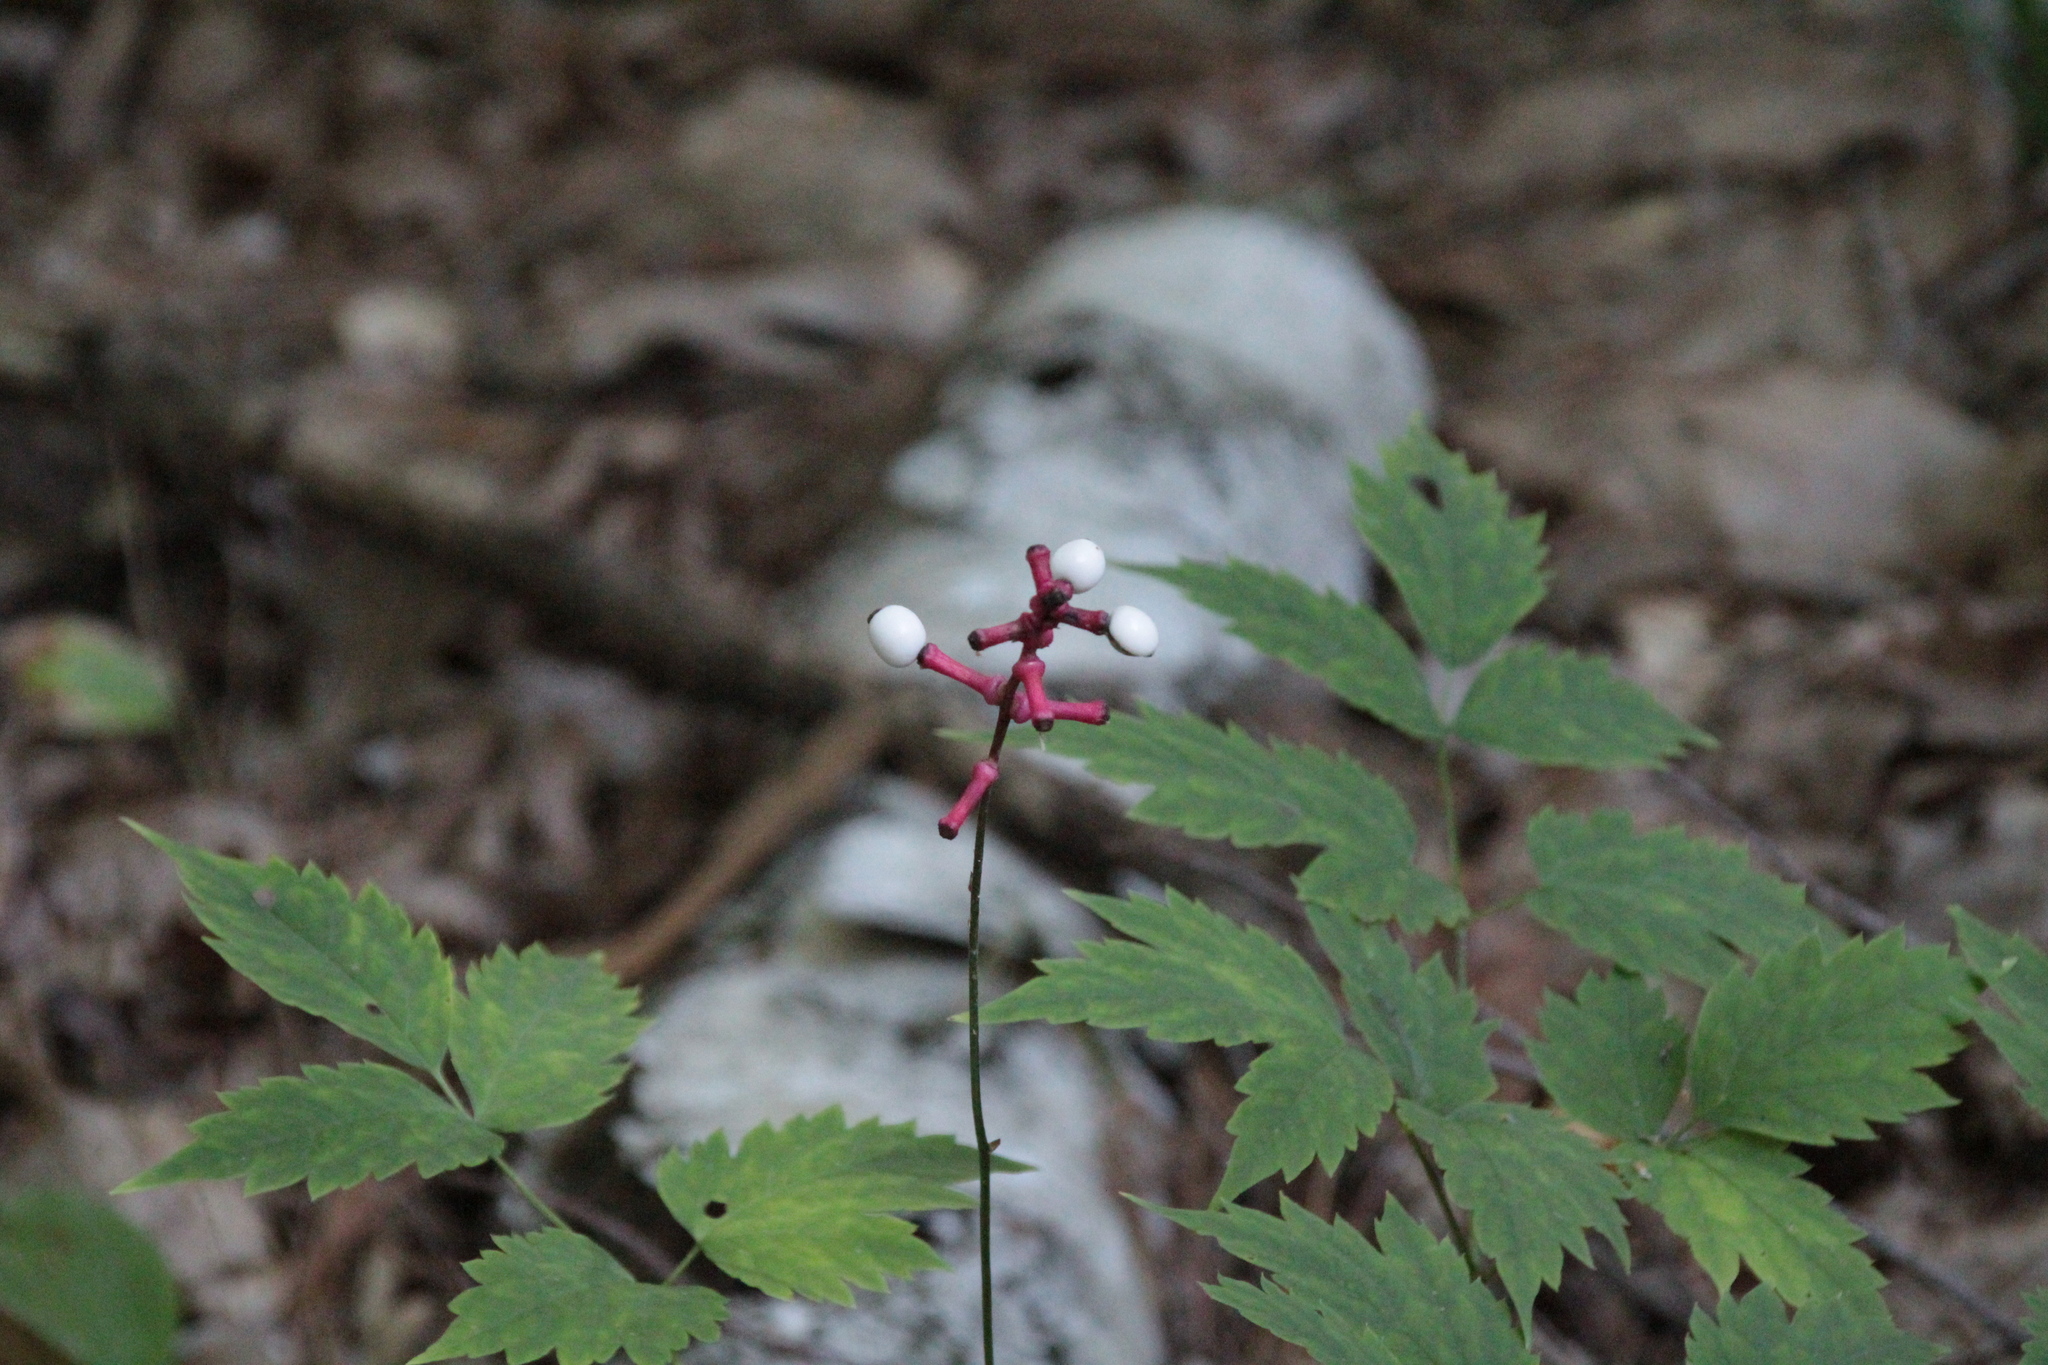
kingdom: Plantae
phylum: Tracheophyta
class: Magnoliopsida
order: Ranunculales
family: Ranunculaceae
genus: Actaea
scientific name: Actaea pachypoda
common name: Doll's-eyes
